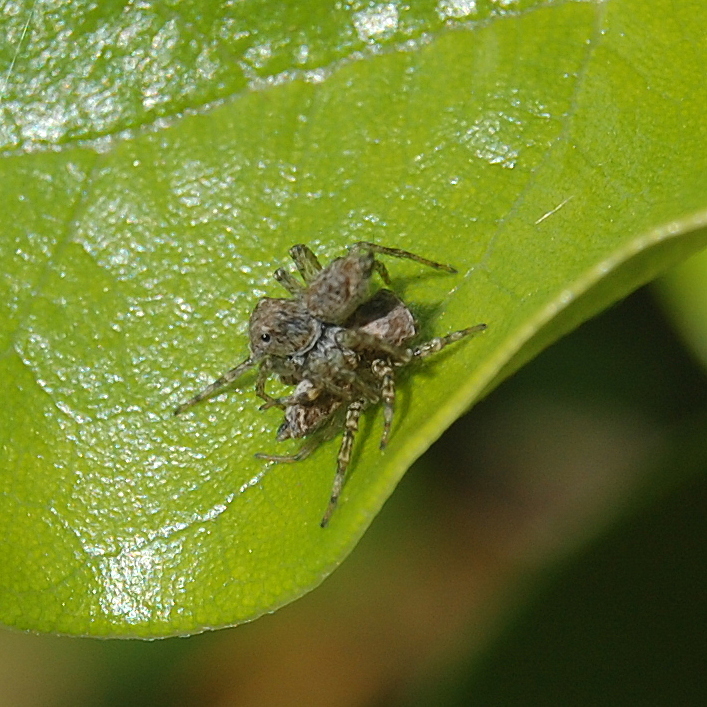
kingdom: Animalia
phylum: Arthropoda
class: Arachnida
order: Araneae
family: Salticidae
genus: Saitis
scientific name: Saitis variegatus
